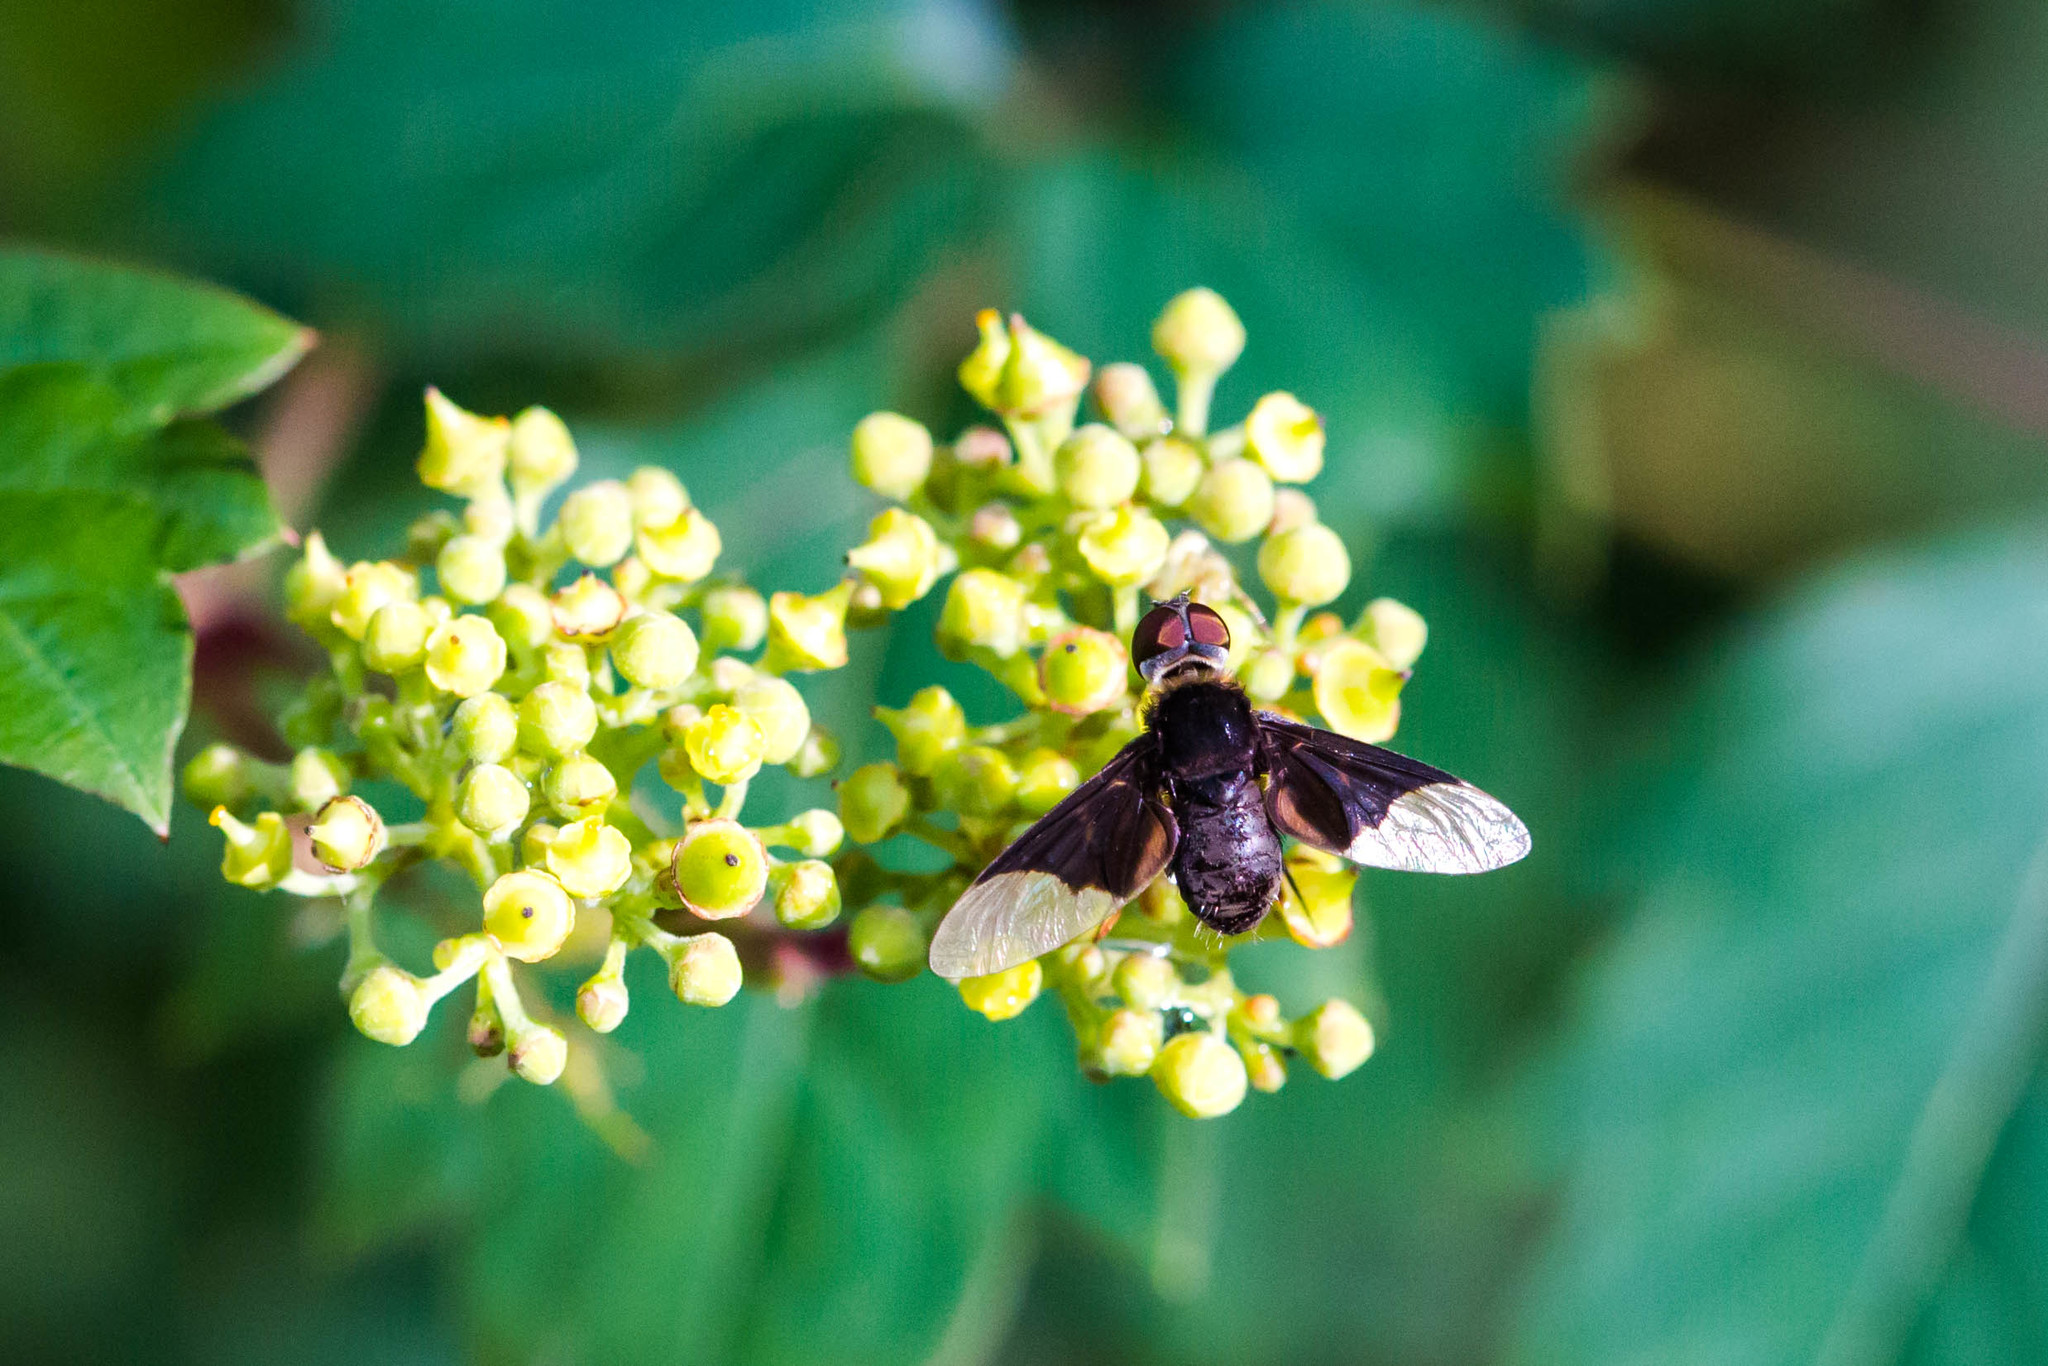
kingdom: Animalia
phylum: Arthropoda
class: Insecta
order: Diptera
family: Bombyliidae
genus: Ins
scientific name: Ins celeris
